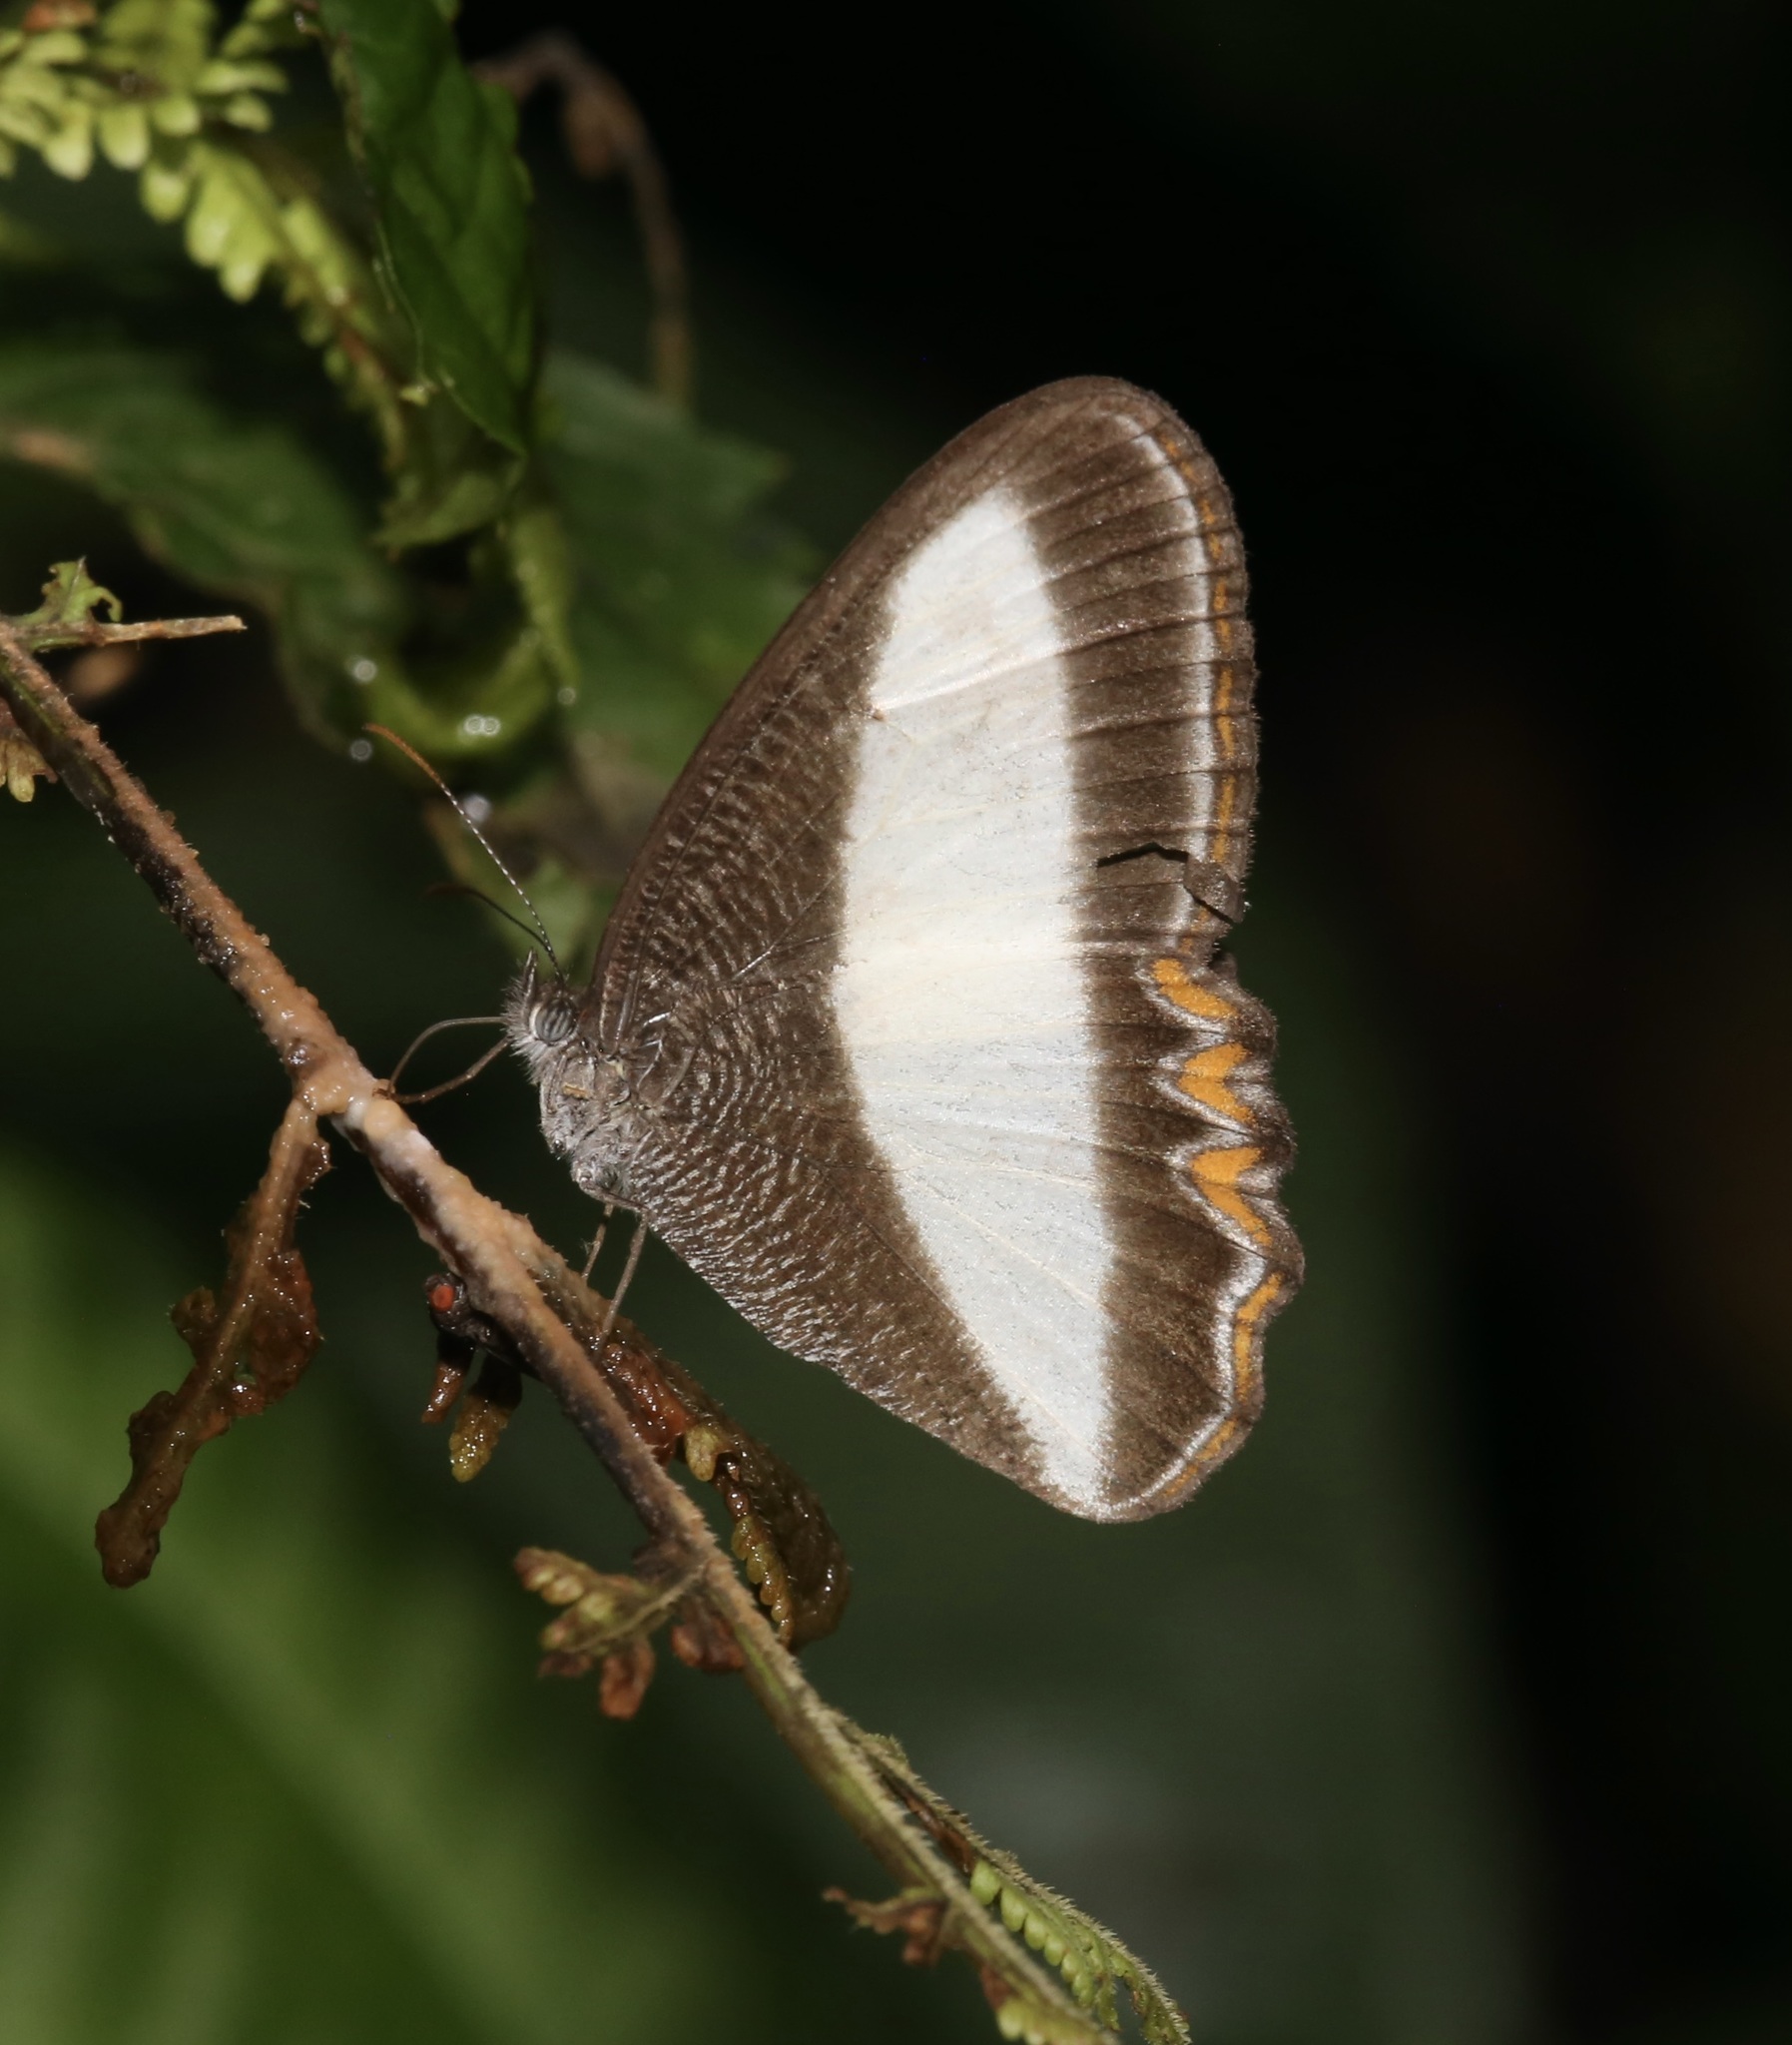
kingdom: Animalia
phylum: Arthropoda
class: Insecta
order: Lepidoptera
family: Nymphalidae
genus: Oressinoma
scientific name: Oressinoma typhla
